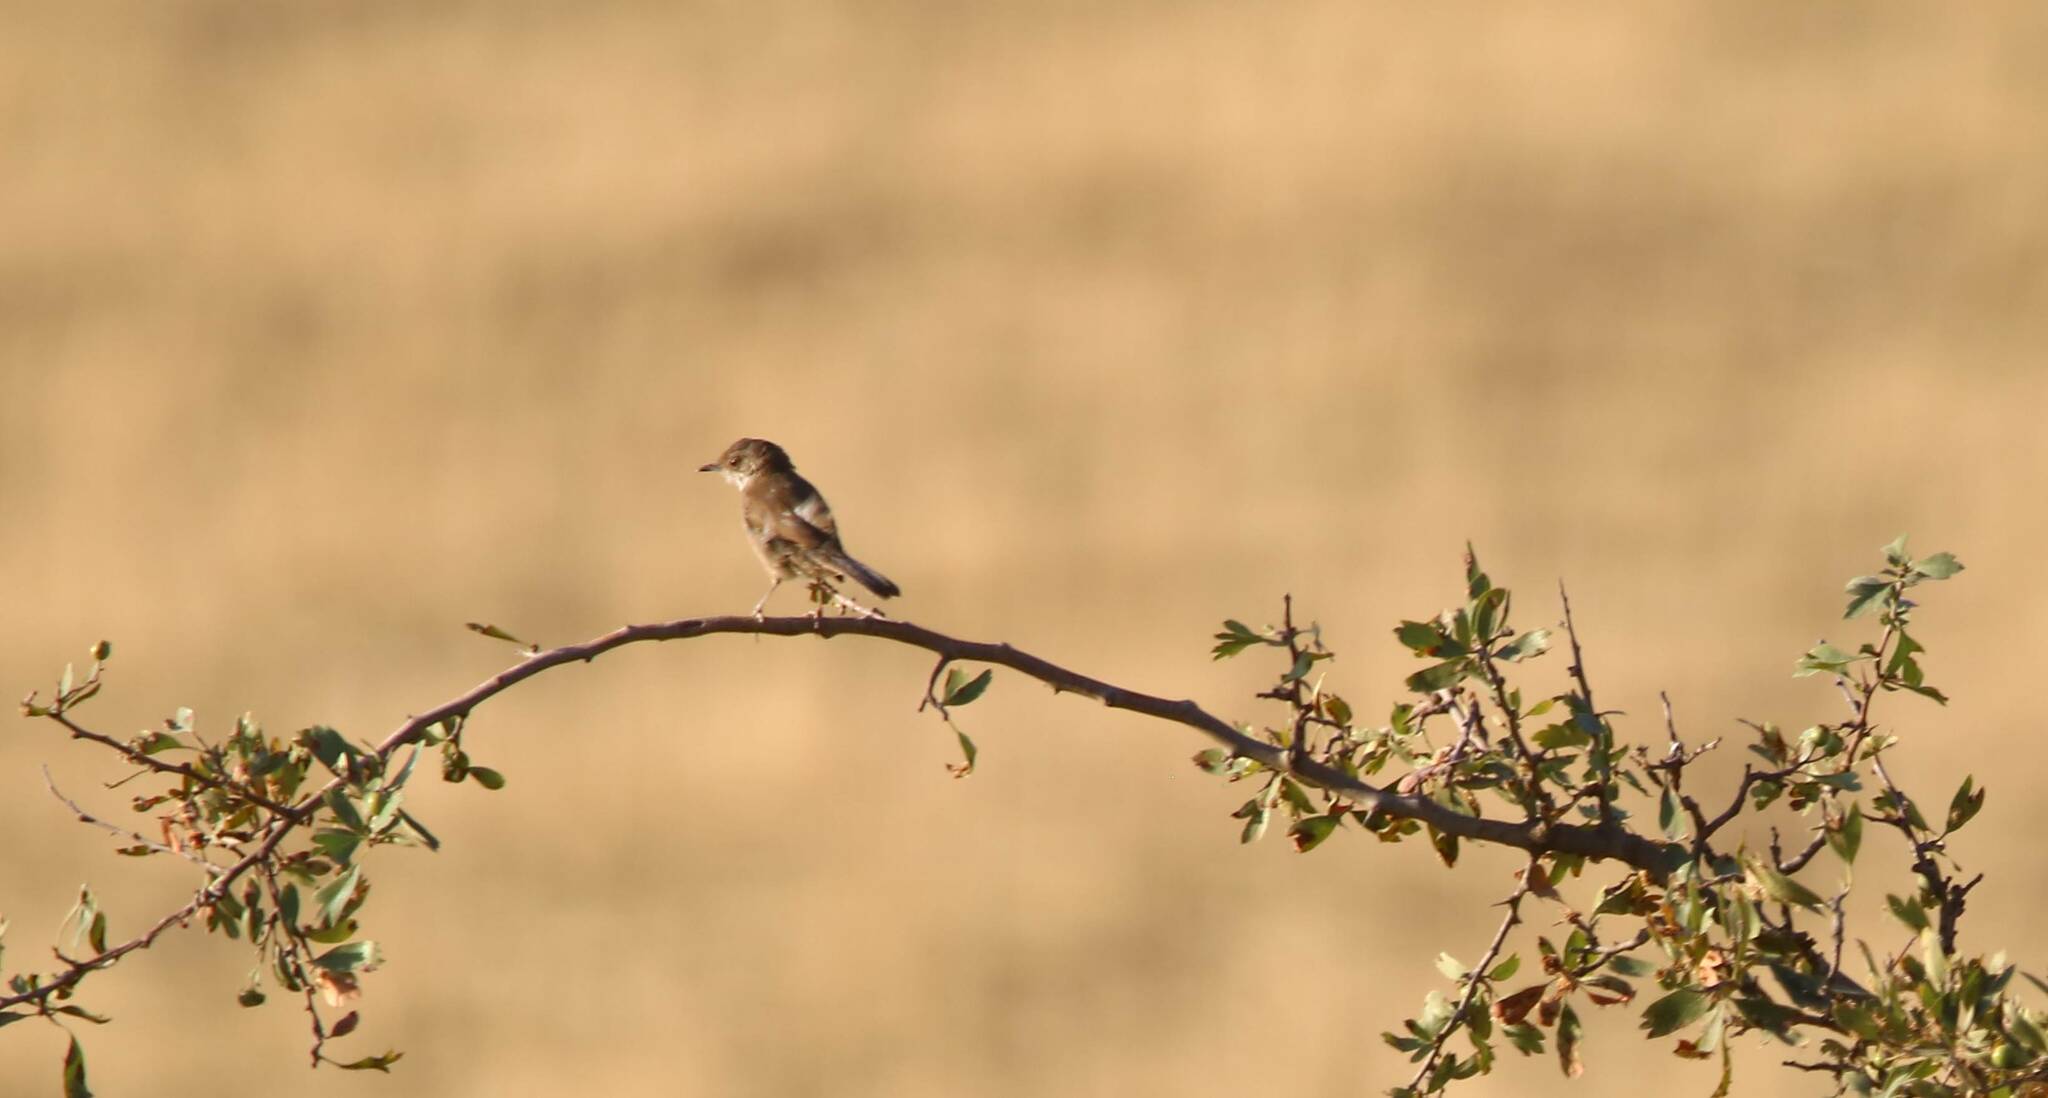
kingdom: Animalia
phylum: Chordata
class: Aves
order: Passeriformes
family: Laniidae
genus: Lanius
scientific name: Lanius senator
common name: Woodchat shrike
